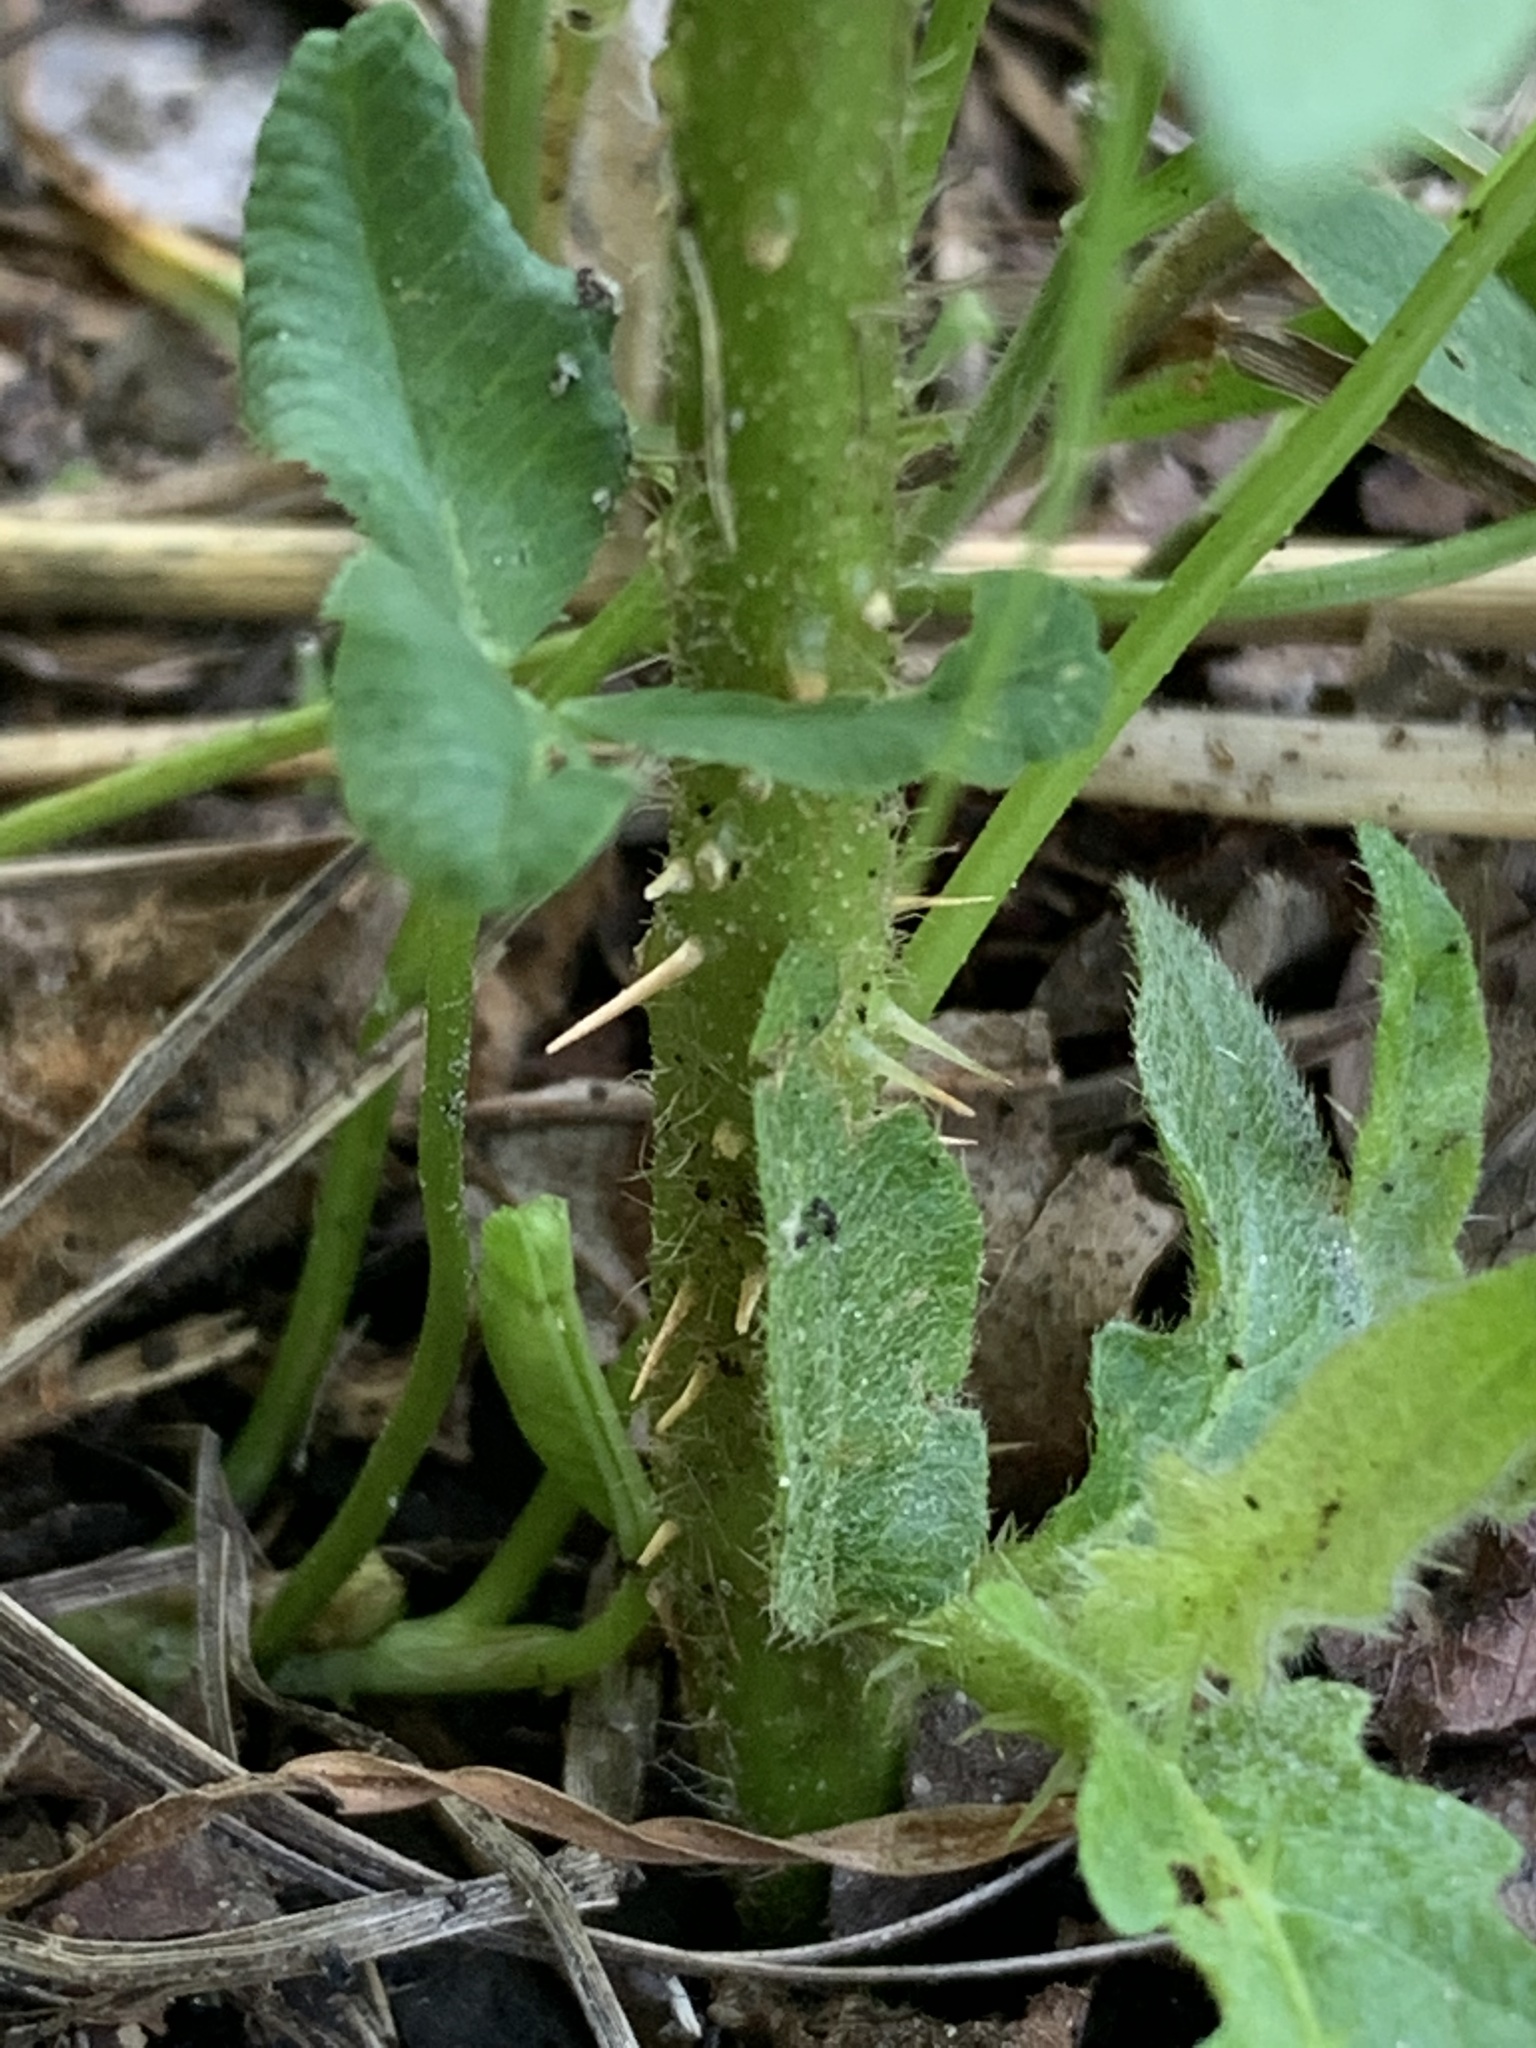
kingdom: Plantae
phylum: Tracheophyta
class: Magnoliopsida
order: Solanales
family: Solanaceae
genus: Solanum
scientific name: Solanum carolinense
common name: Horse-nettle
